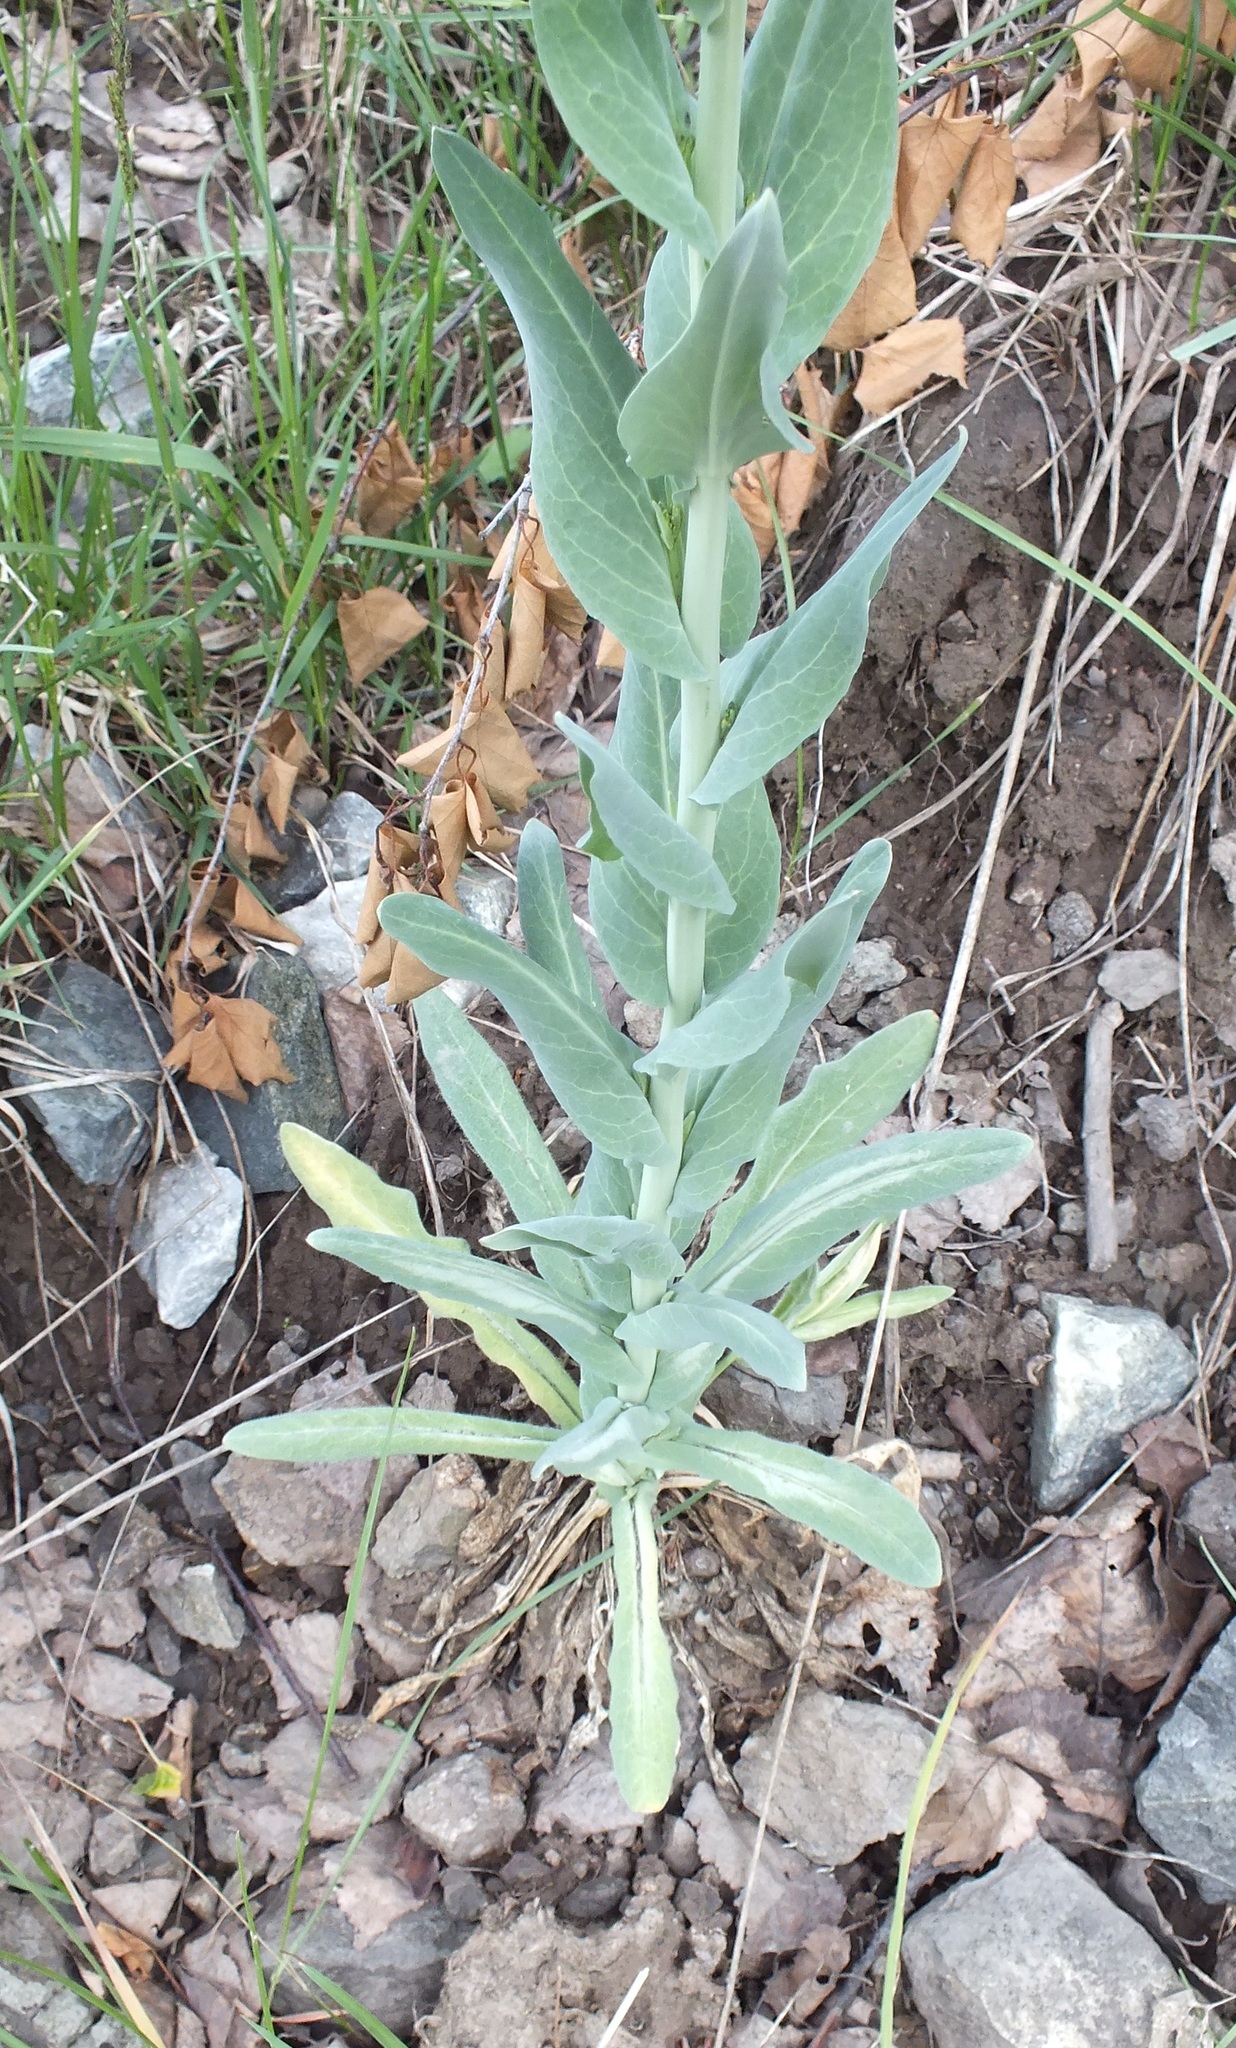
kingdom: Plantae
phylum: Tracheophyta
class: Magnoliopsida
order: Brassicales
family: Brassicaceae
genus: Turritis
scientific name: Turritis glabra
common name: Tower rockcress
